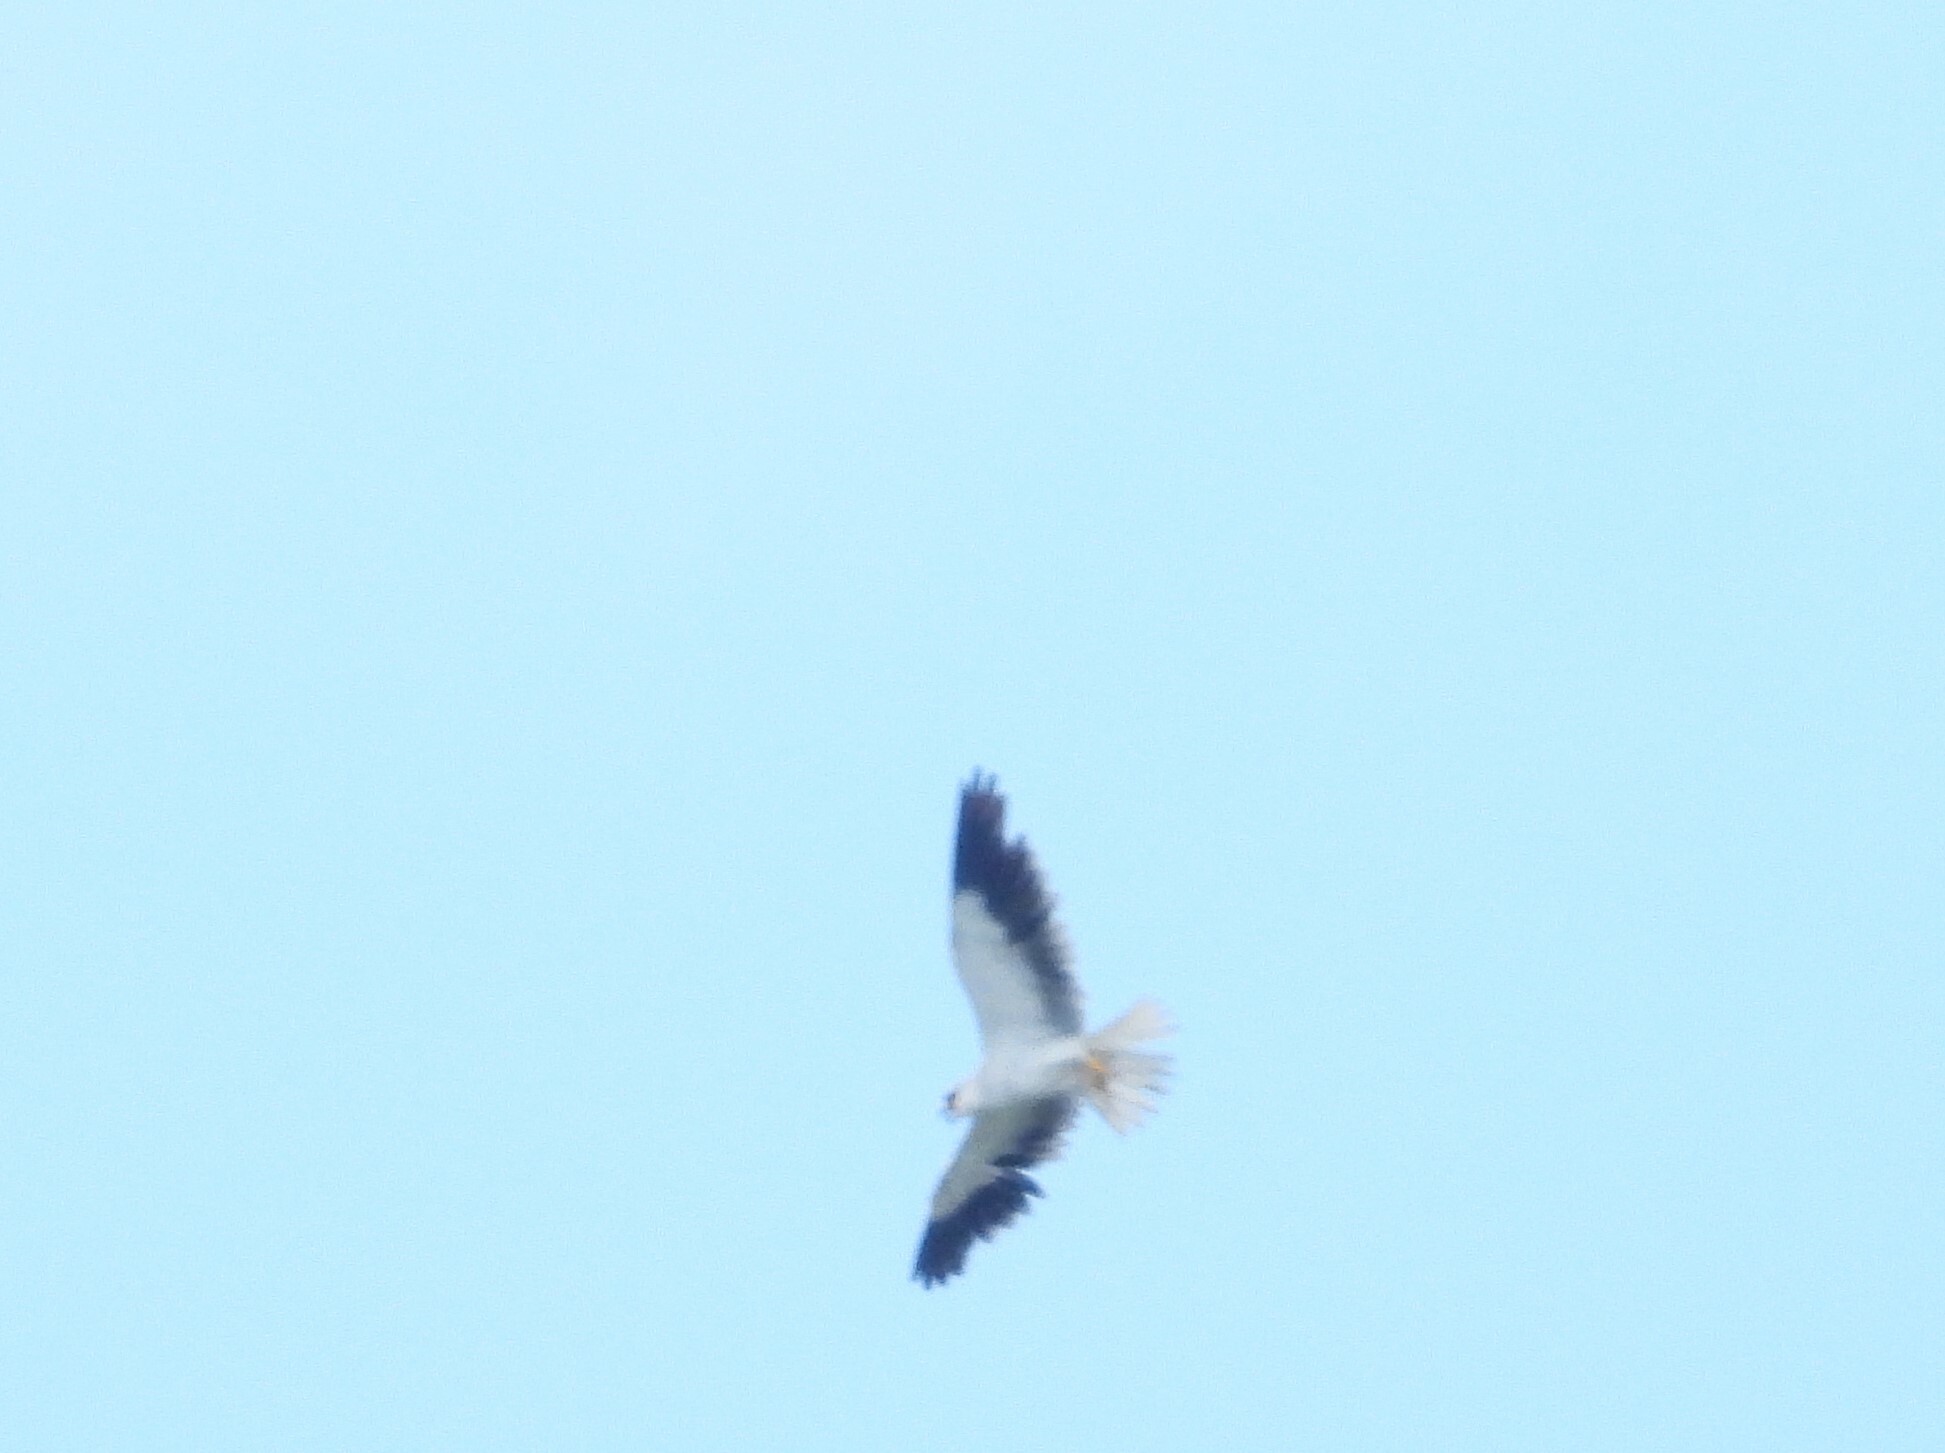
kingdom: Animalia
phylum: Chordata
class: Aves
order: Accipitriformes
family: Accipitridae
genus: Elanus
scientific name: Elanus caeruleus
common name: Black-winged kite
